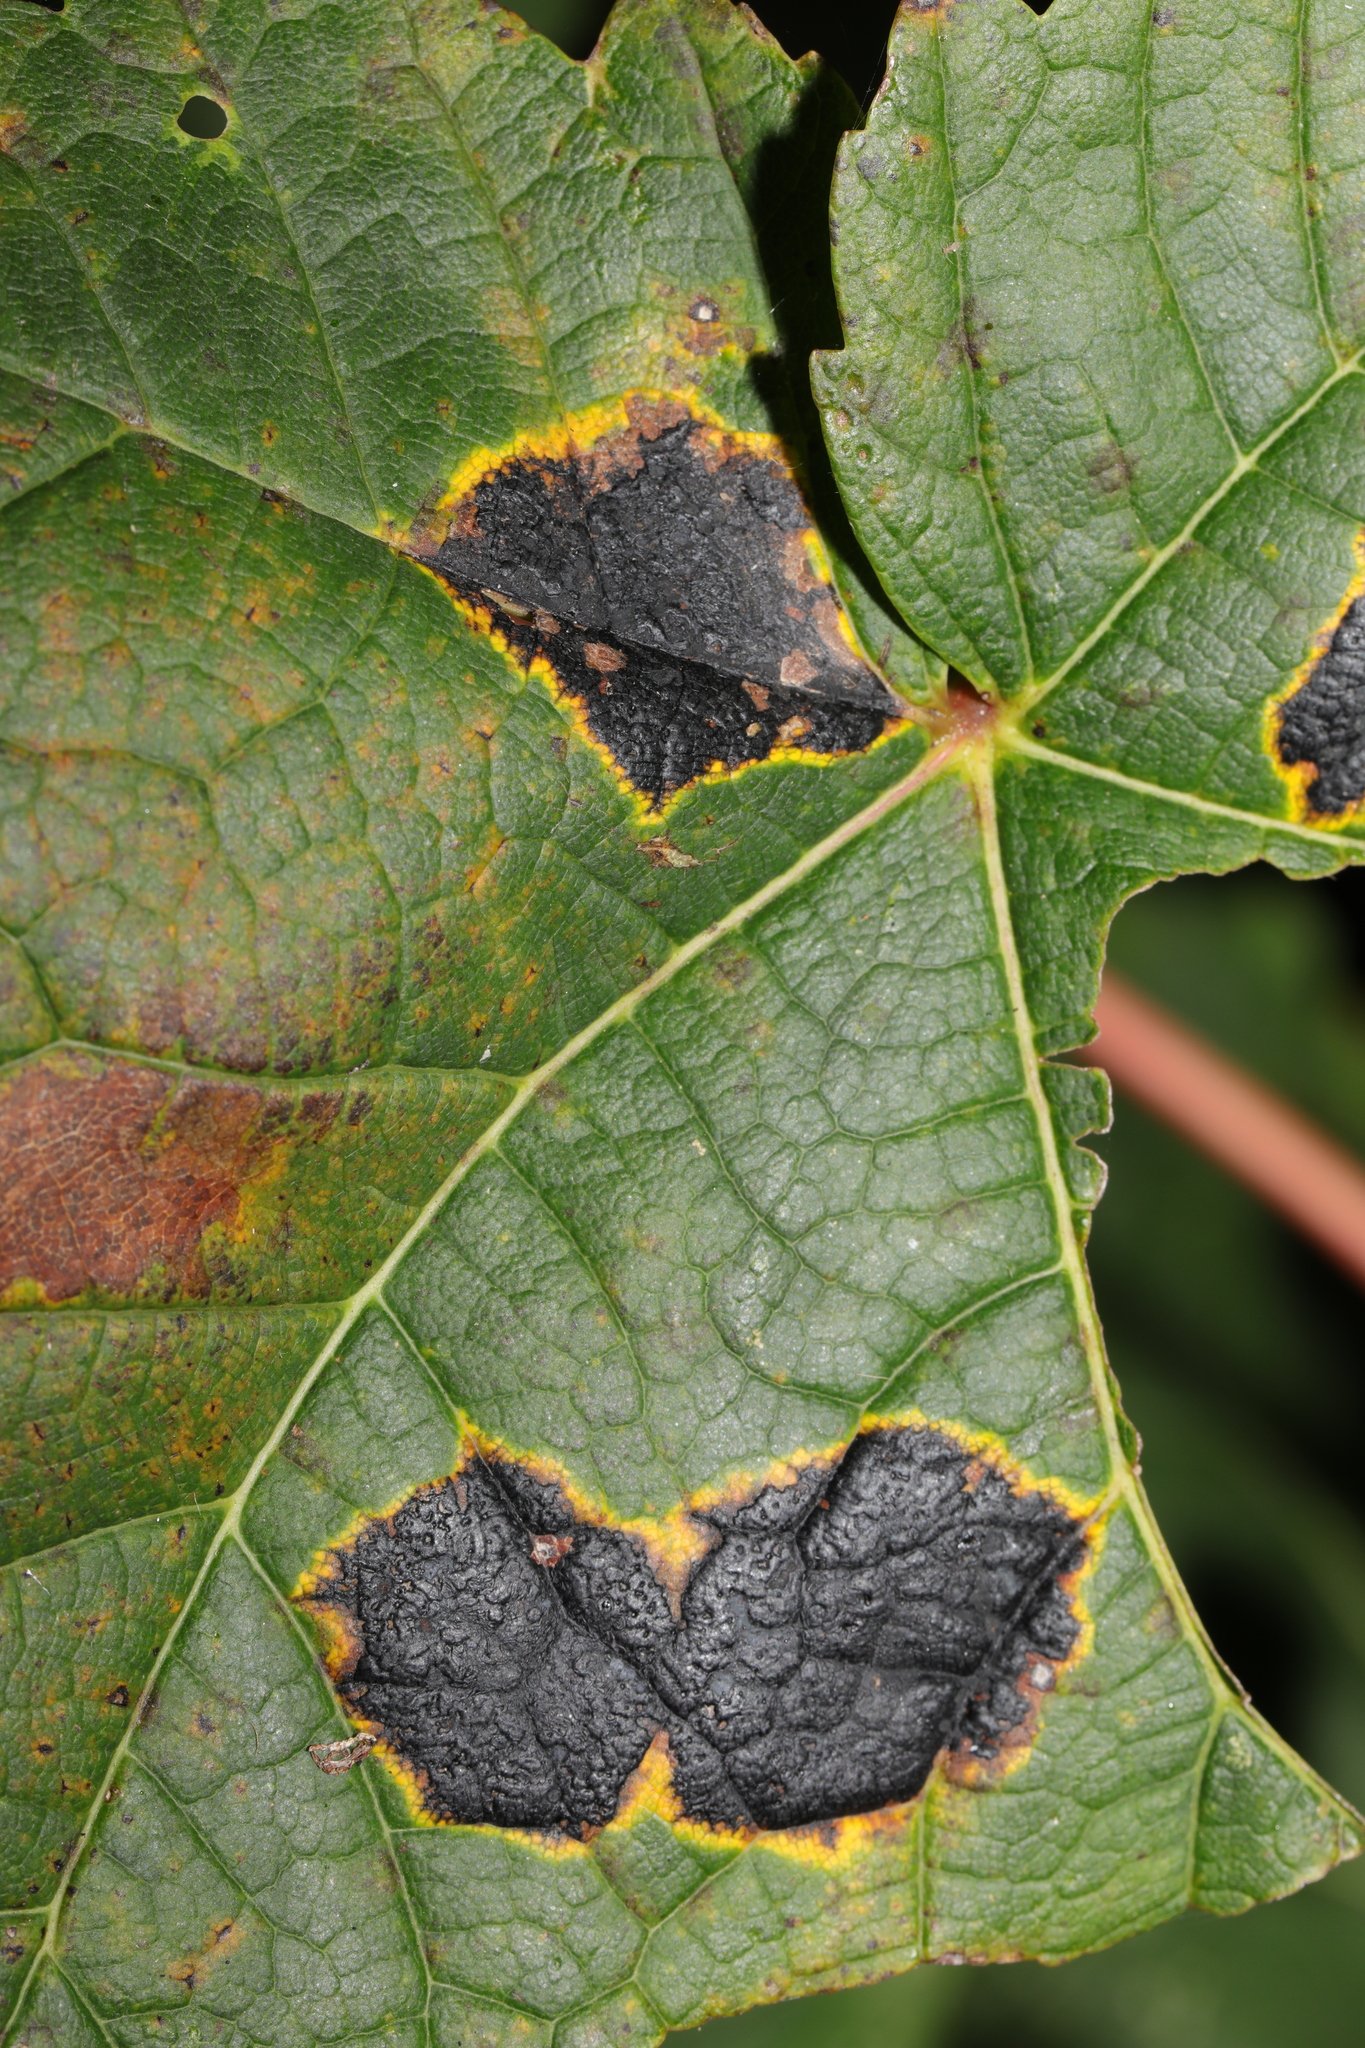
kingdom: Fungi
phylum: Ascomycota
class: Leotiomycetes
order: Rhytismatales
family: Rhytismataceae
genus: Rhytisma
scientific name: Rhytisma acerinum
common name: European tar spot
